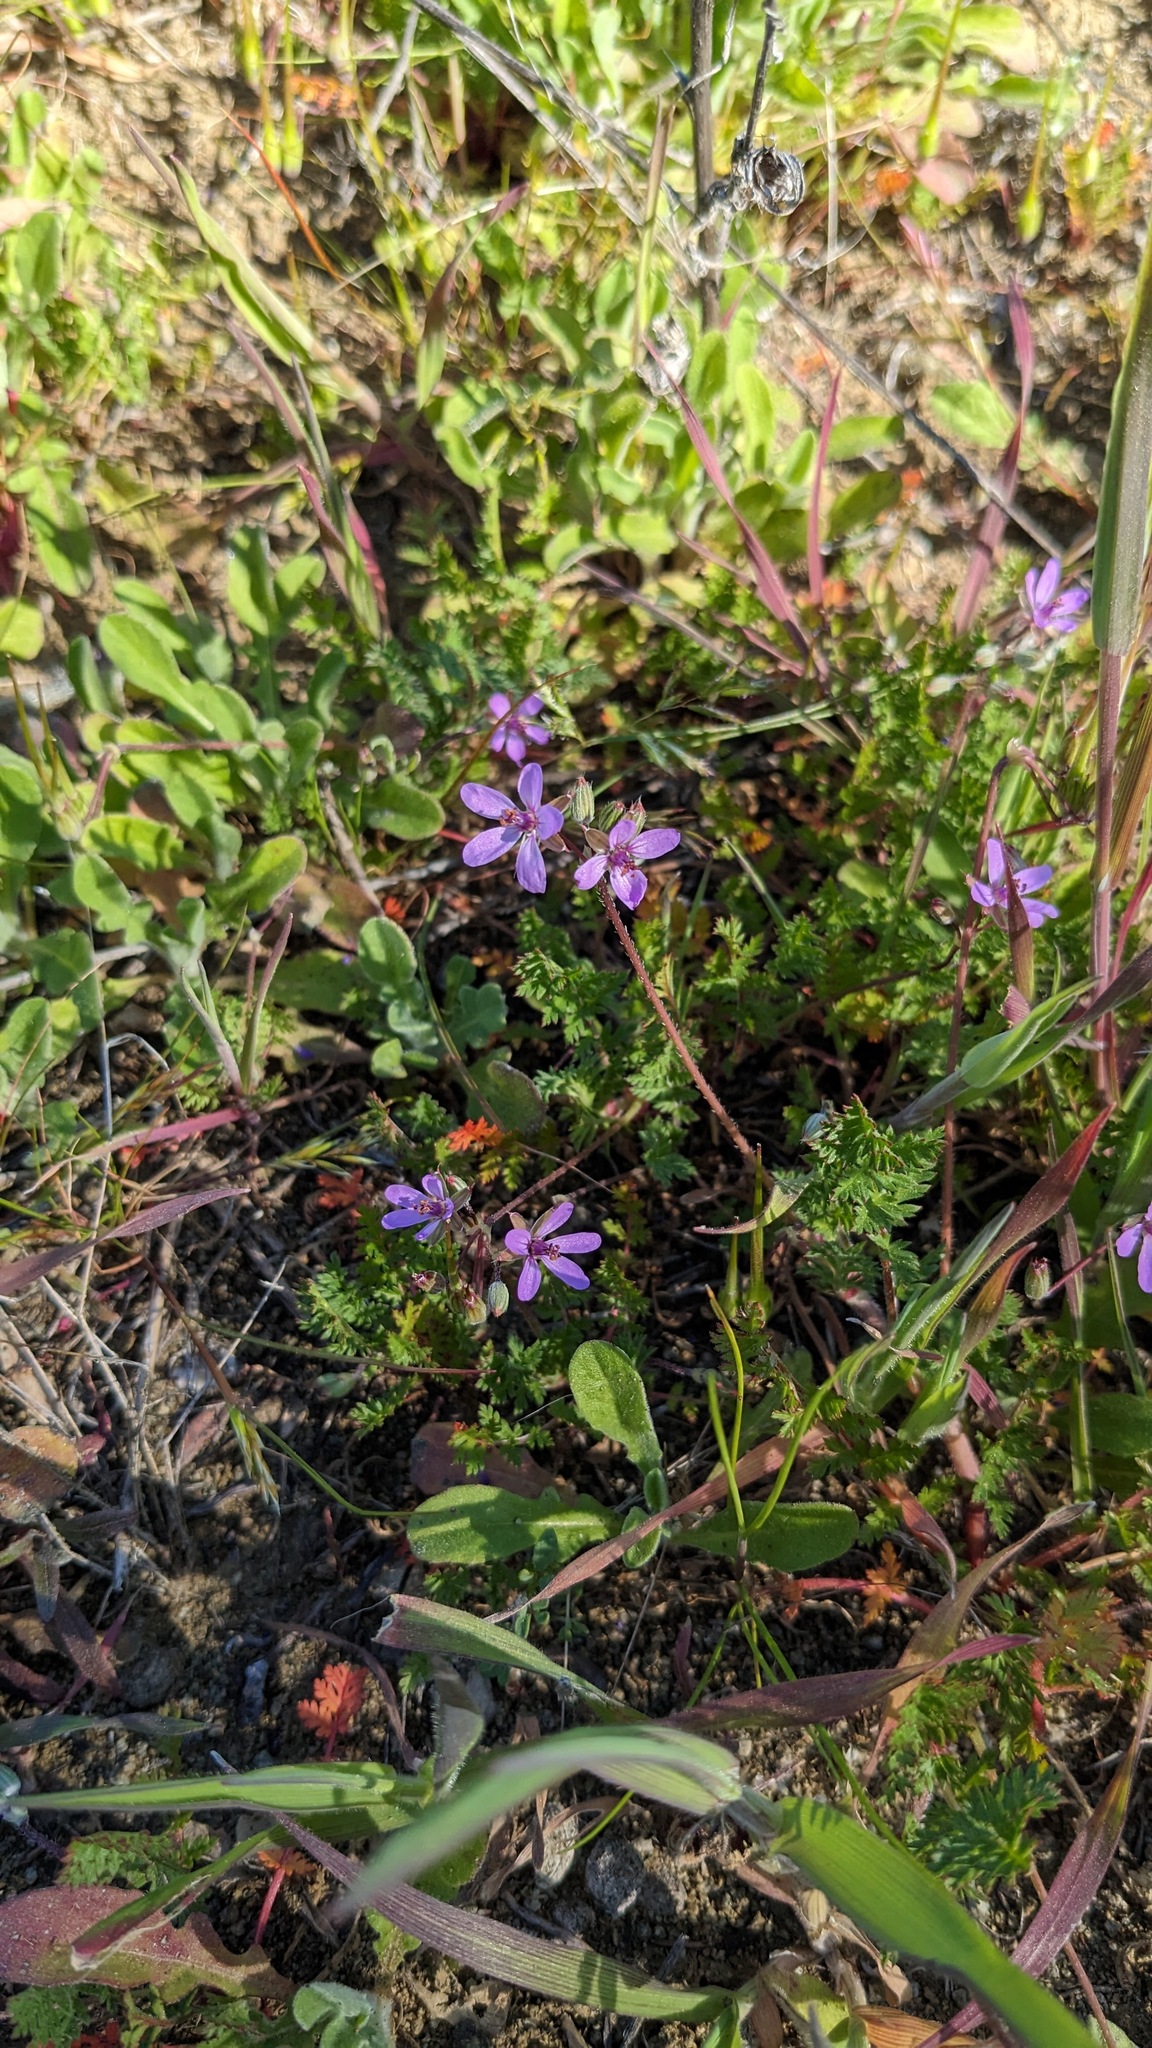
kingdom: Plantae
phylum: Tracheophyta
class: Magnoliopsida
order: Geraniales
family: Geraniaceae
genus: Erodium
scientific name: Erodium cicutarium
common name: Common stork's-bill
